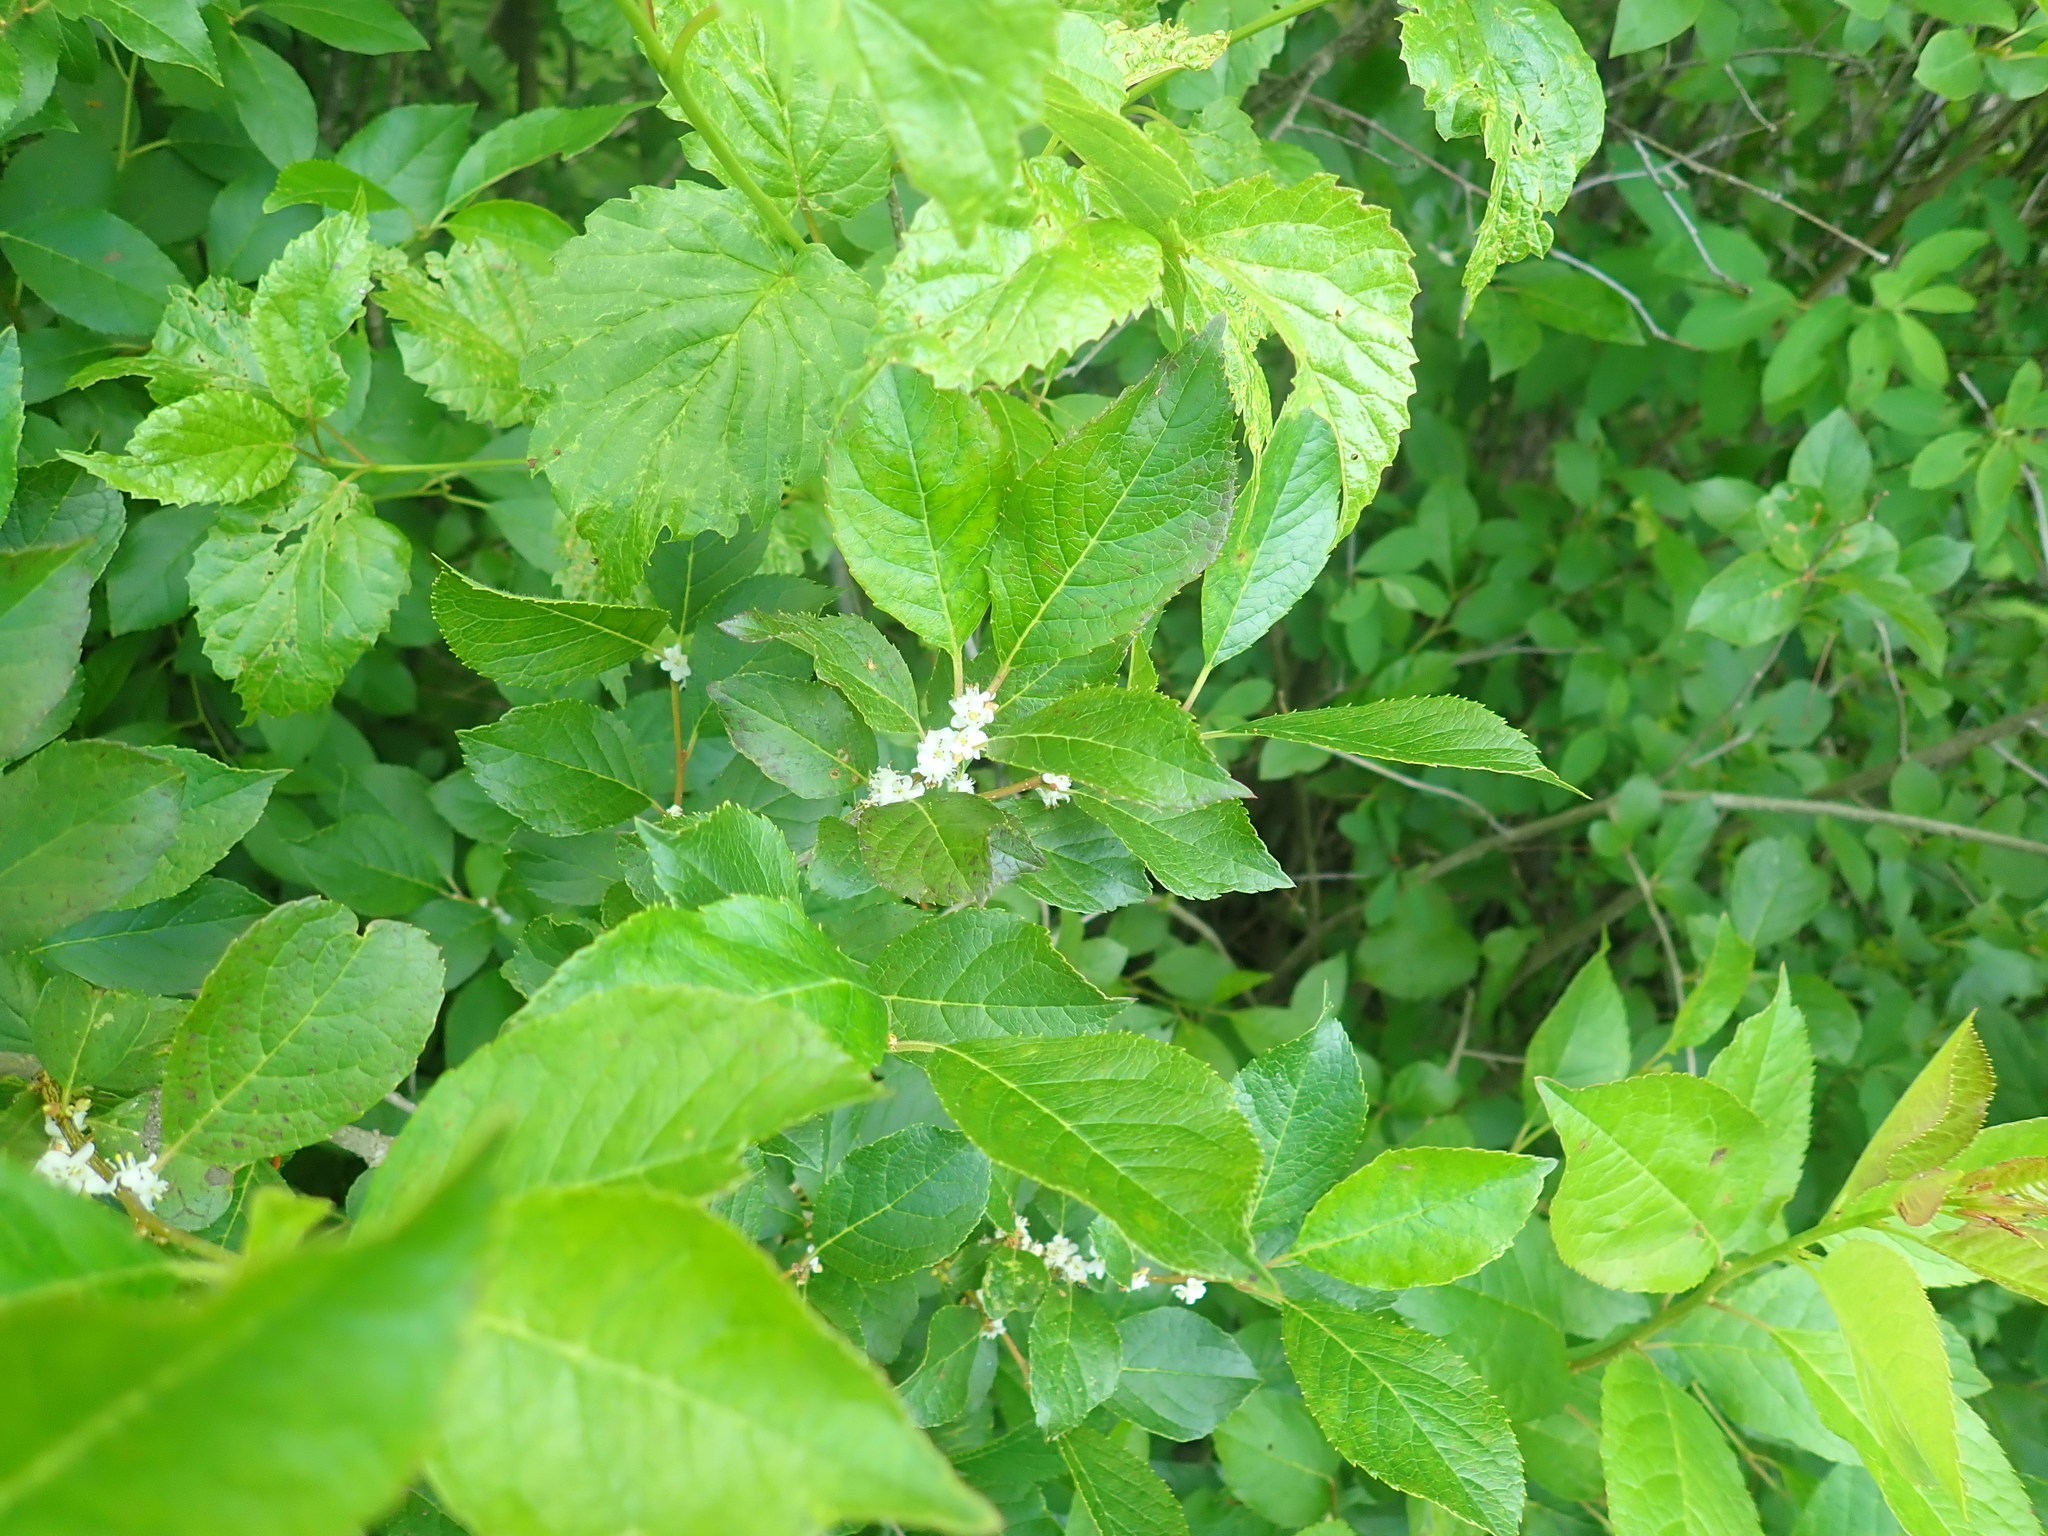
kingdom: Plantae
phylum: Tracheophyta
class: Magnoliopsida
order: Aquifoliales
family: Aquifoliaceae
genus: Ilex
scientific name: Ilex verticillata
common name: Virginia winterberry
